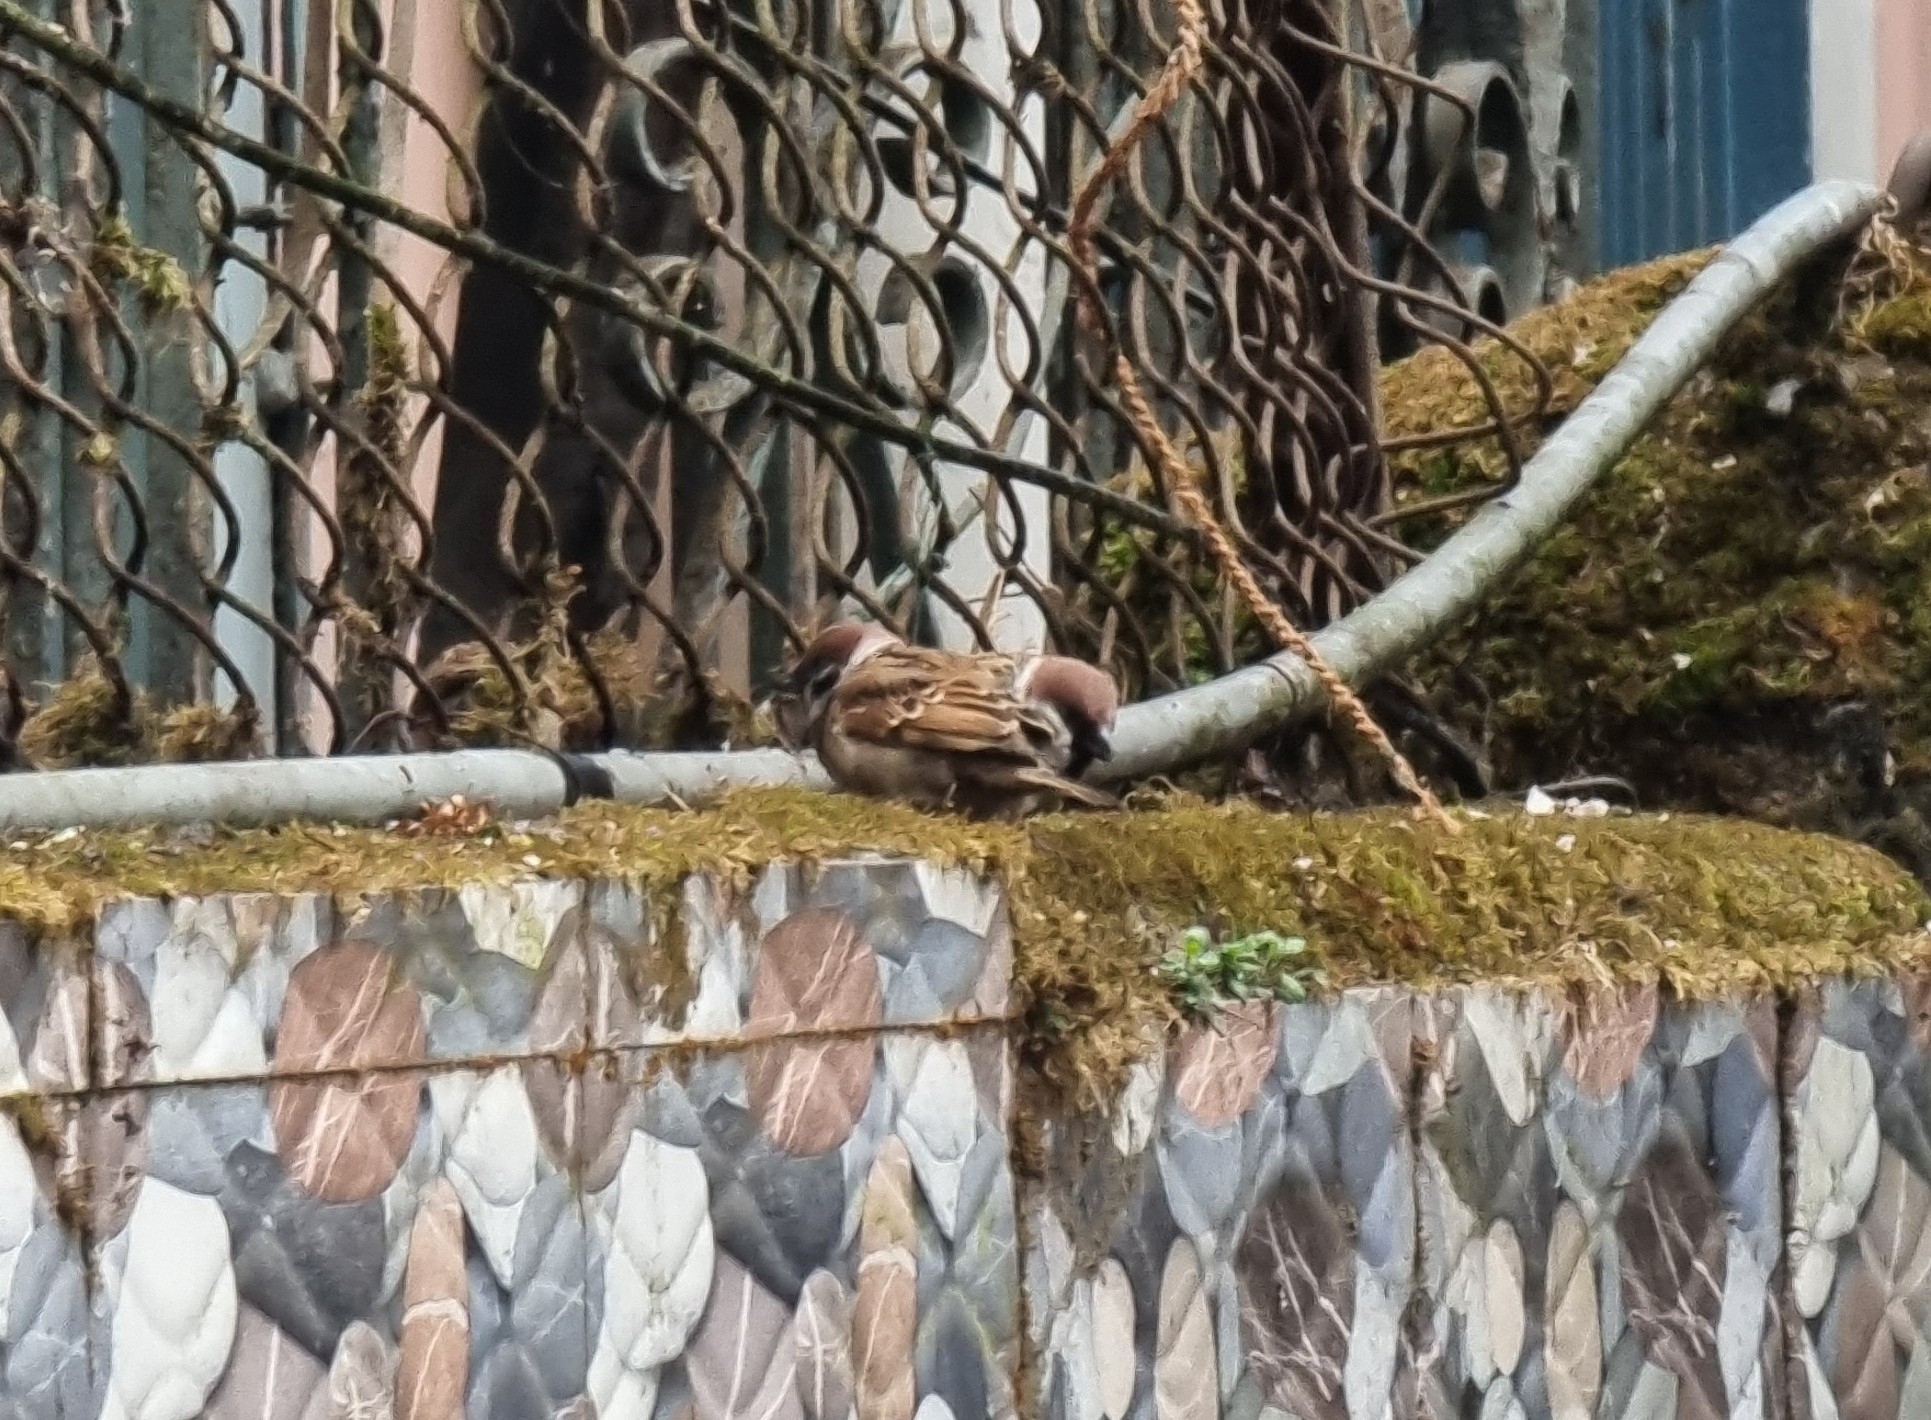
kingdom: Animalia
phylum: Chordata
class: Aves
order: Passeriformes
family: Passeridae
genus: Passer
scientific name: Passer montanus
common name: Eurasian tree sparrow
